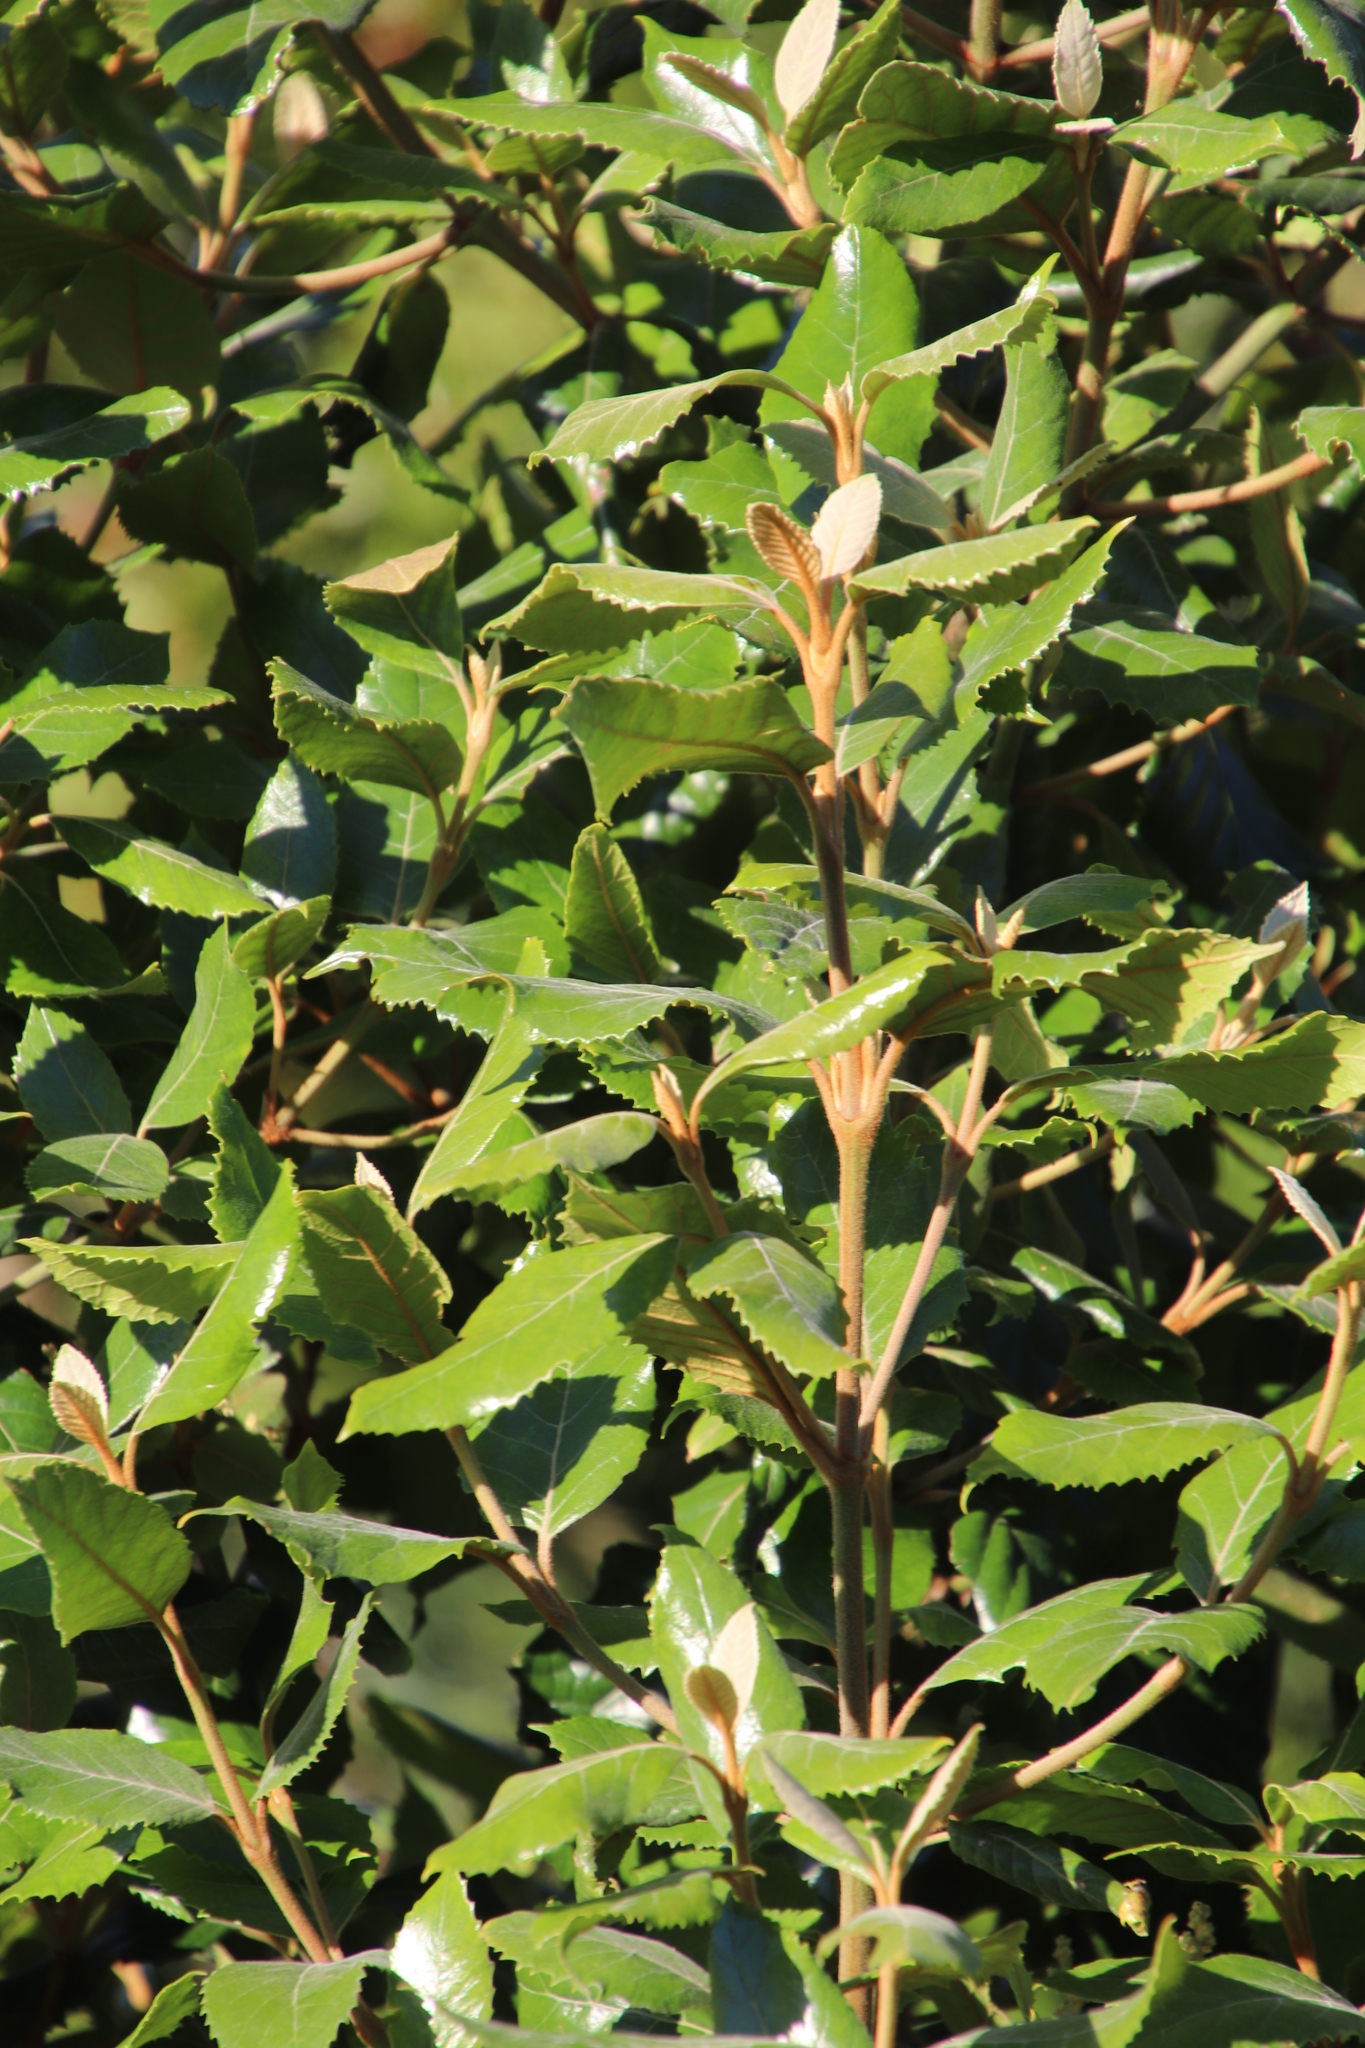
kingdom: Plantae
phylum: Tracheophyta
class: Magnoliopsida
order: Cornales
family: Curtisiaceae
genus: Curtisia
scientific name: Curtisia dentata
